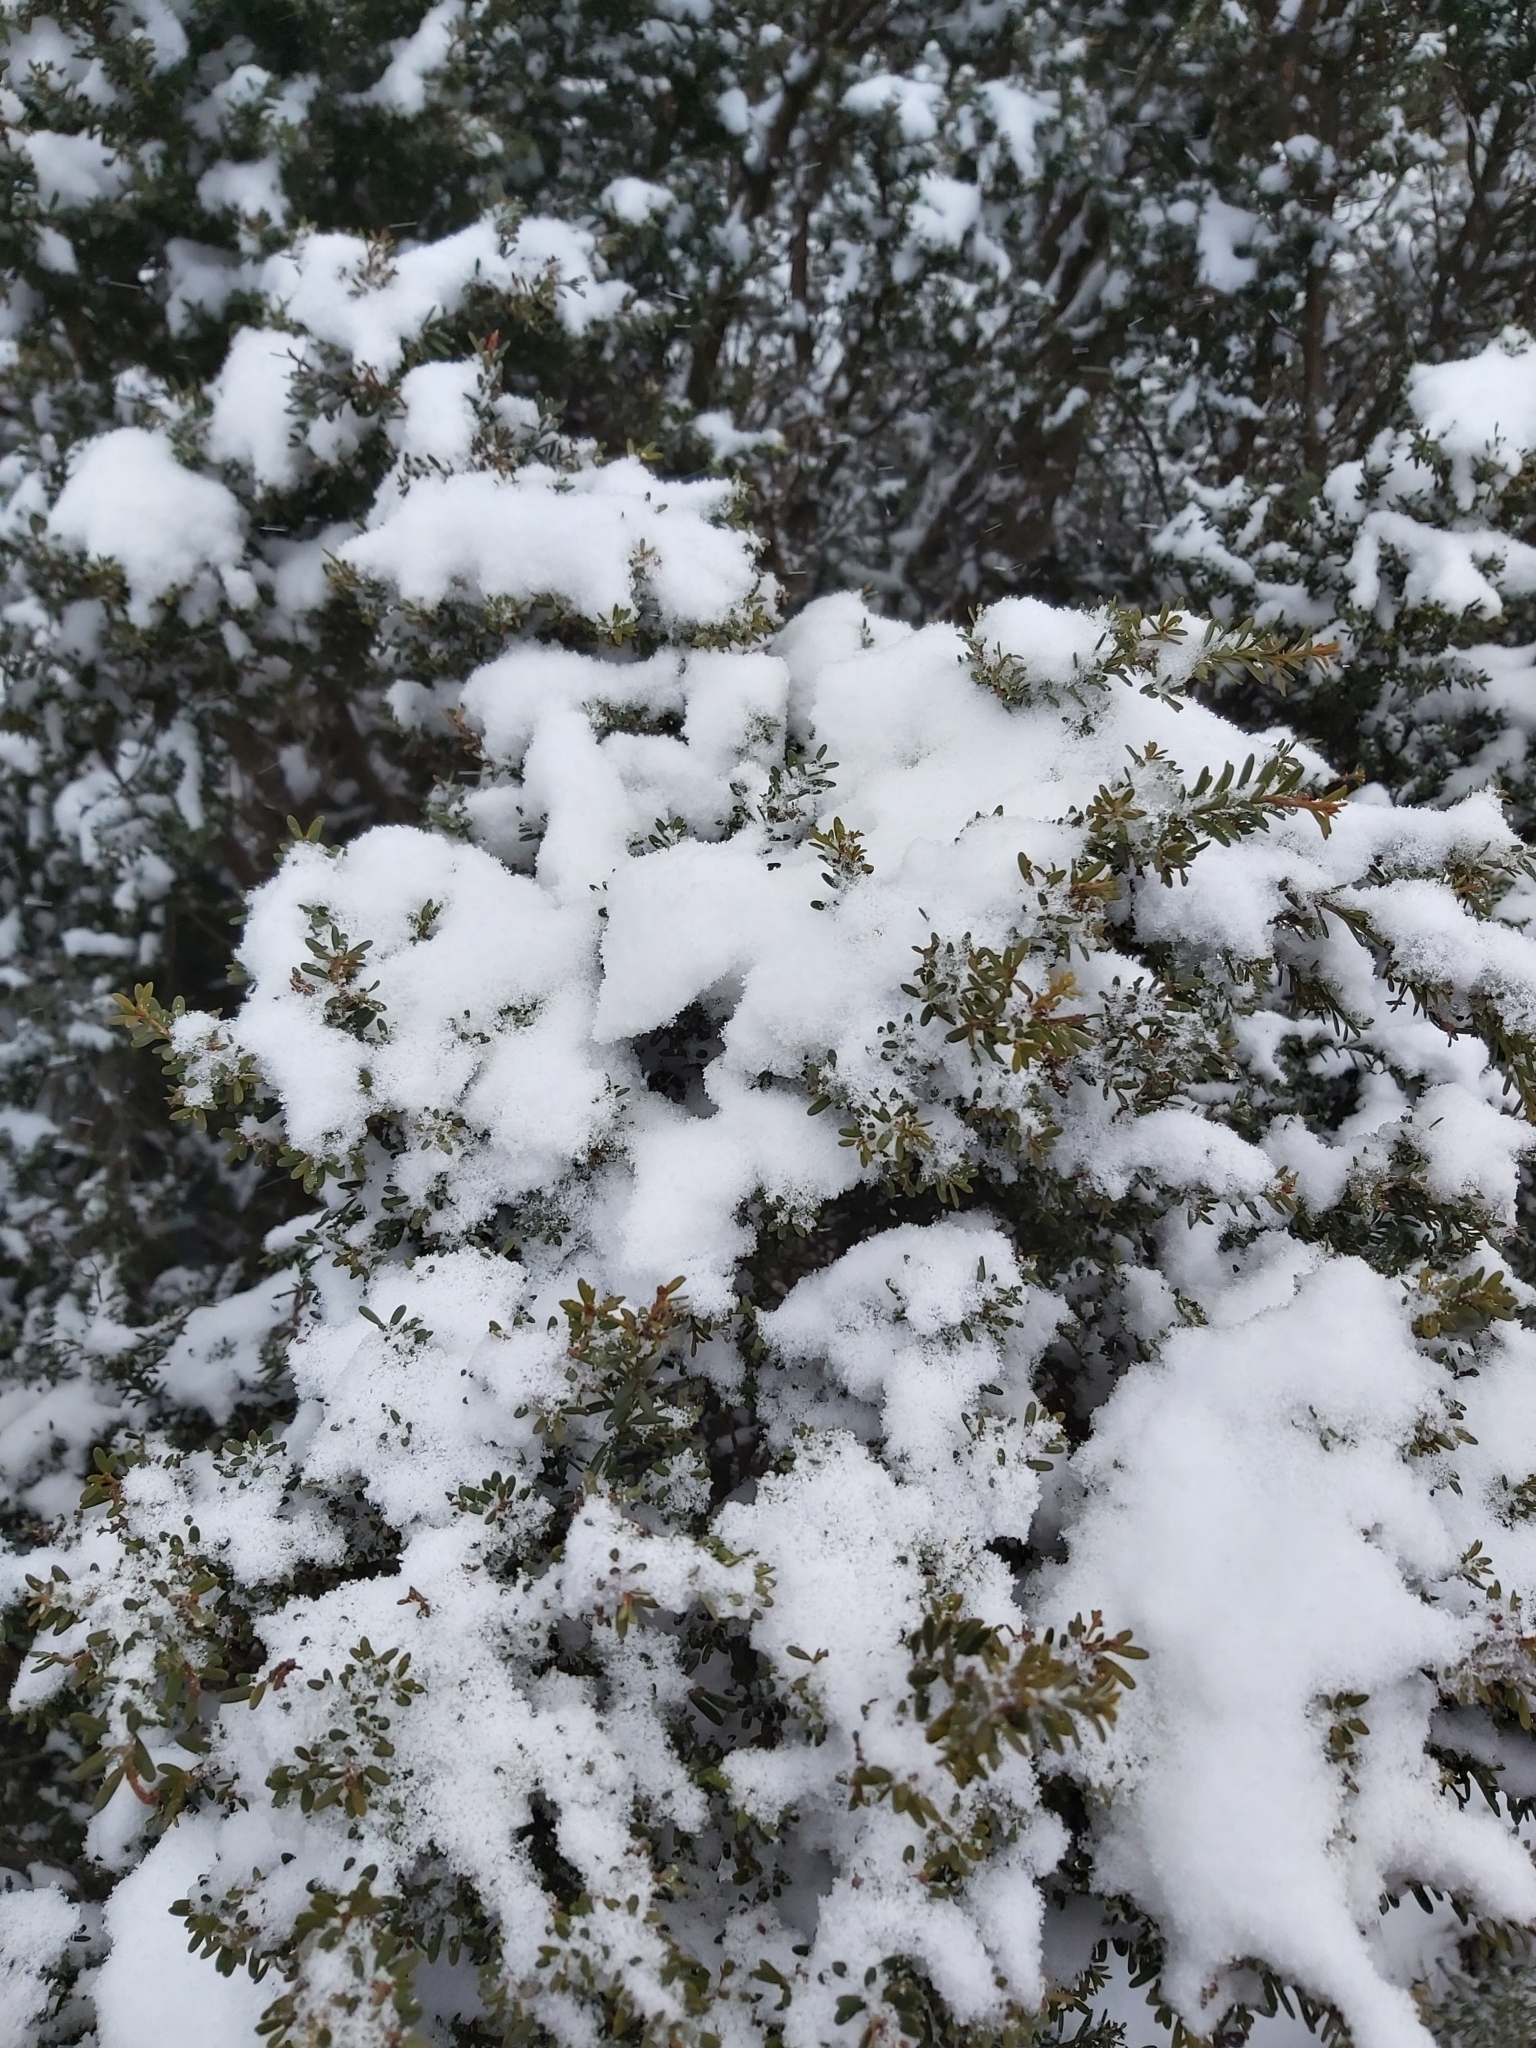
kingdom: Plantae
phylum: Tracheophyta
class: Pinopsida
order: Pinales
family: Podocarpaceae
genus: Podocarpus
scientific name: Podocarpus lawrencei
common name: Mountain plum pine
